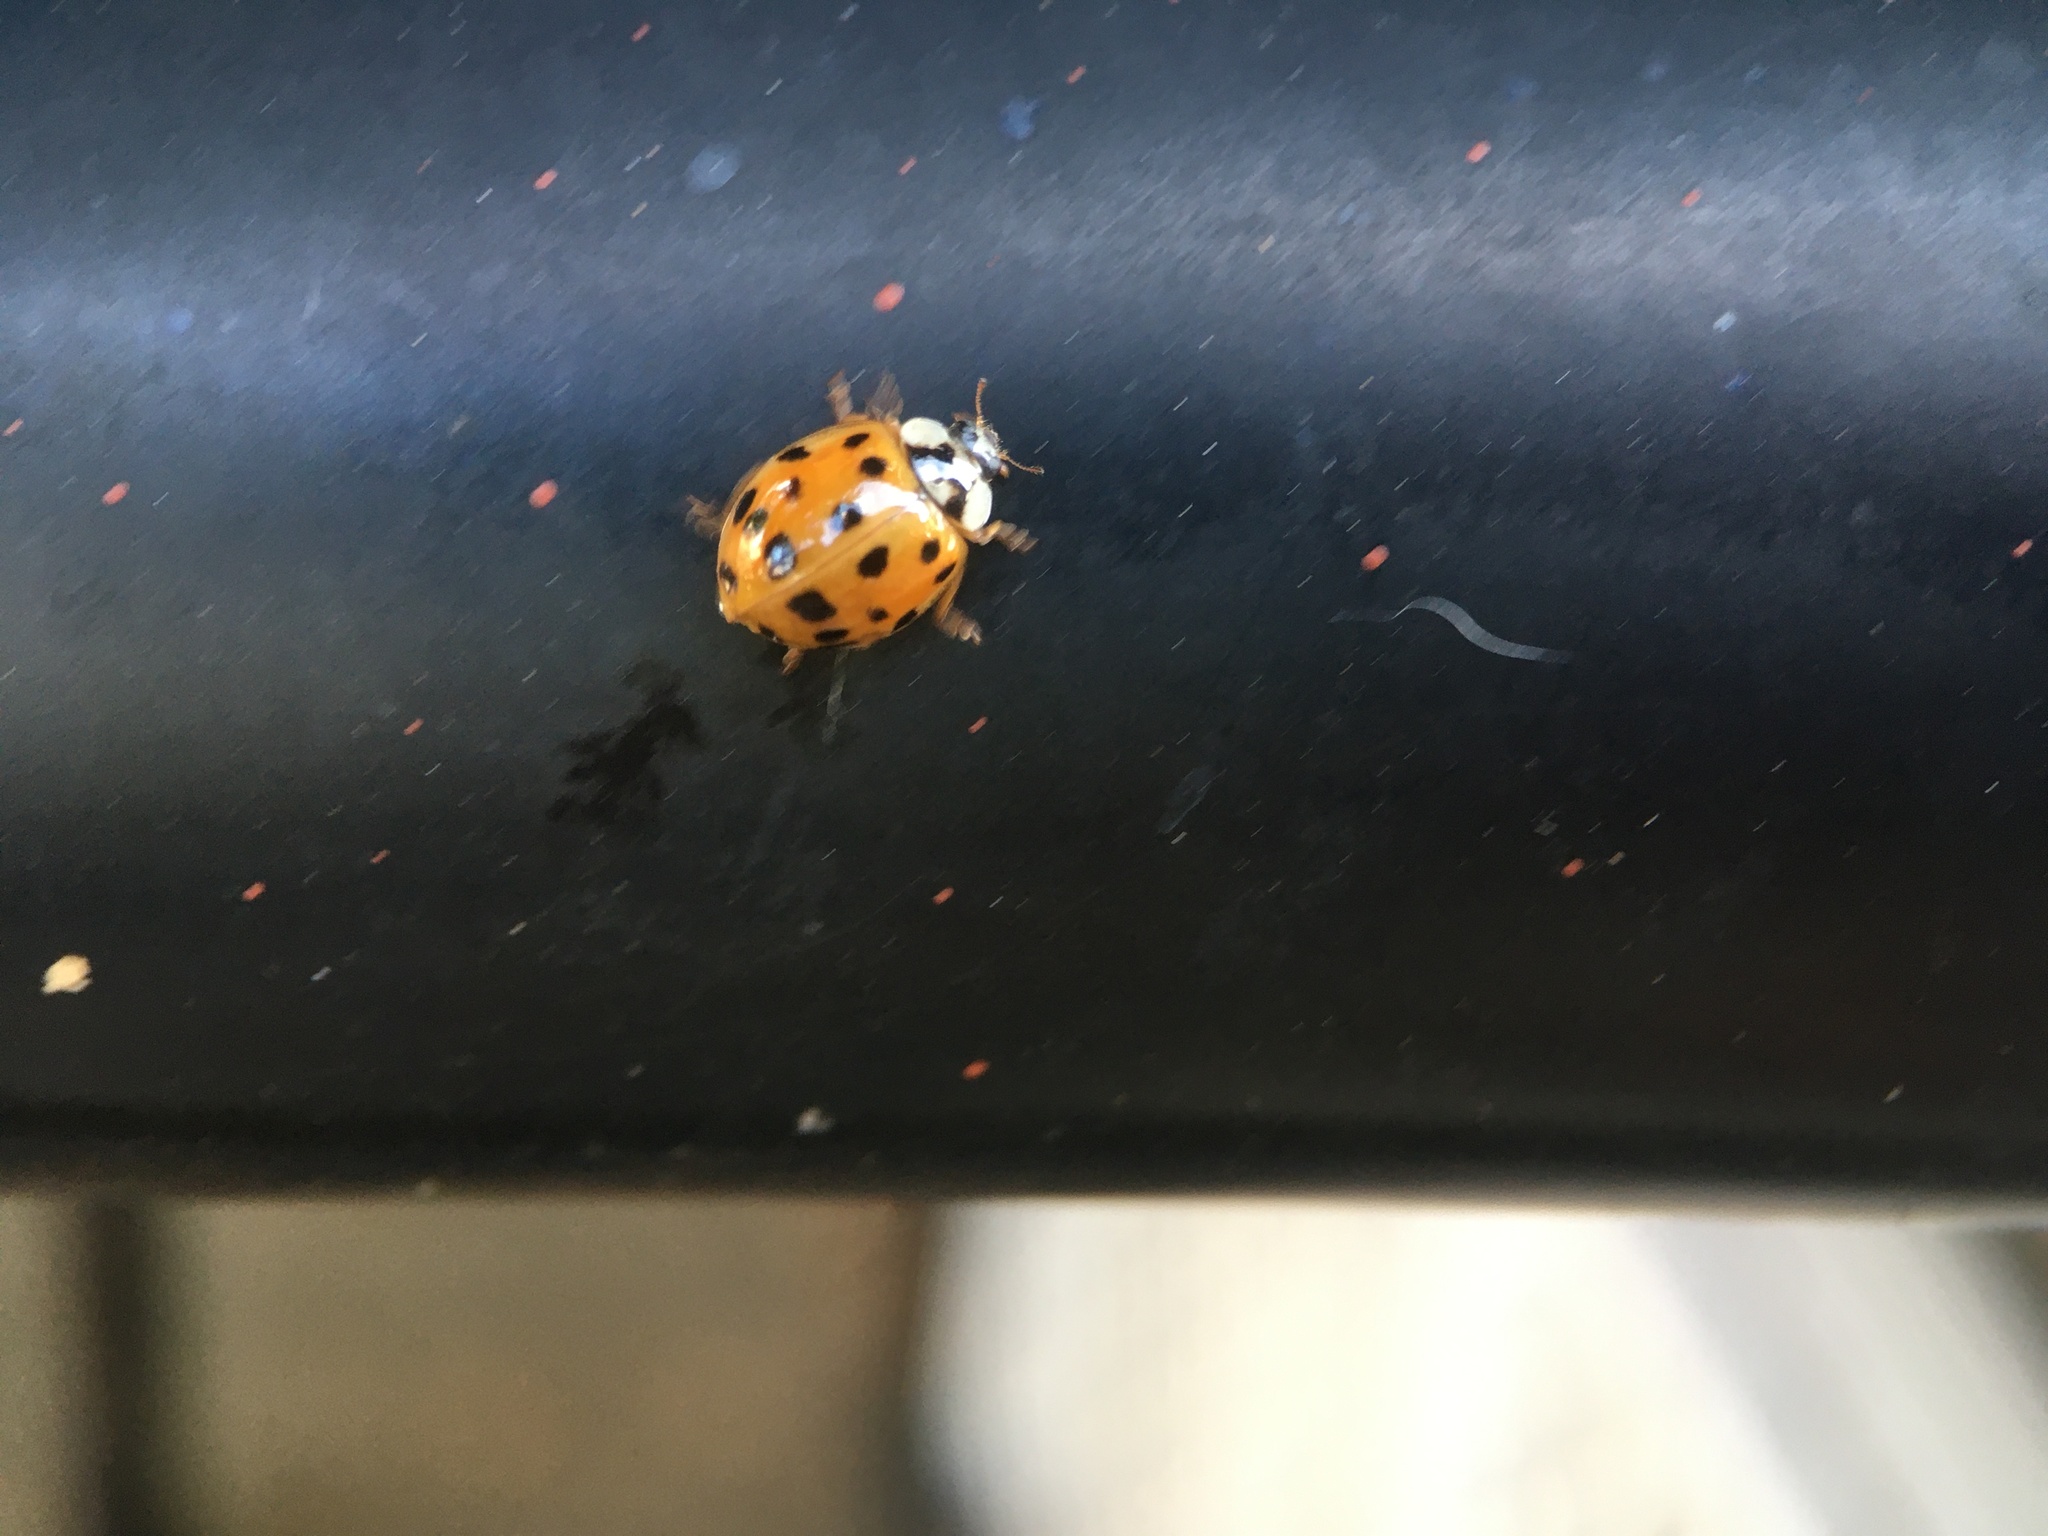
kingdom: Animalia
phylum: Arthropoda
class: Insecta
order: Coleoptera
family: Coccinellidae
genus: Harmonia
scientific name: Harmonia axyridis
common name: Harlequin ladybird
